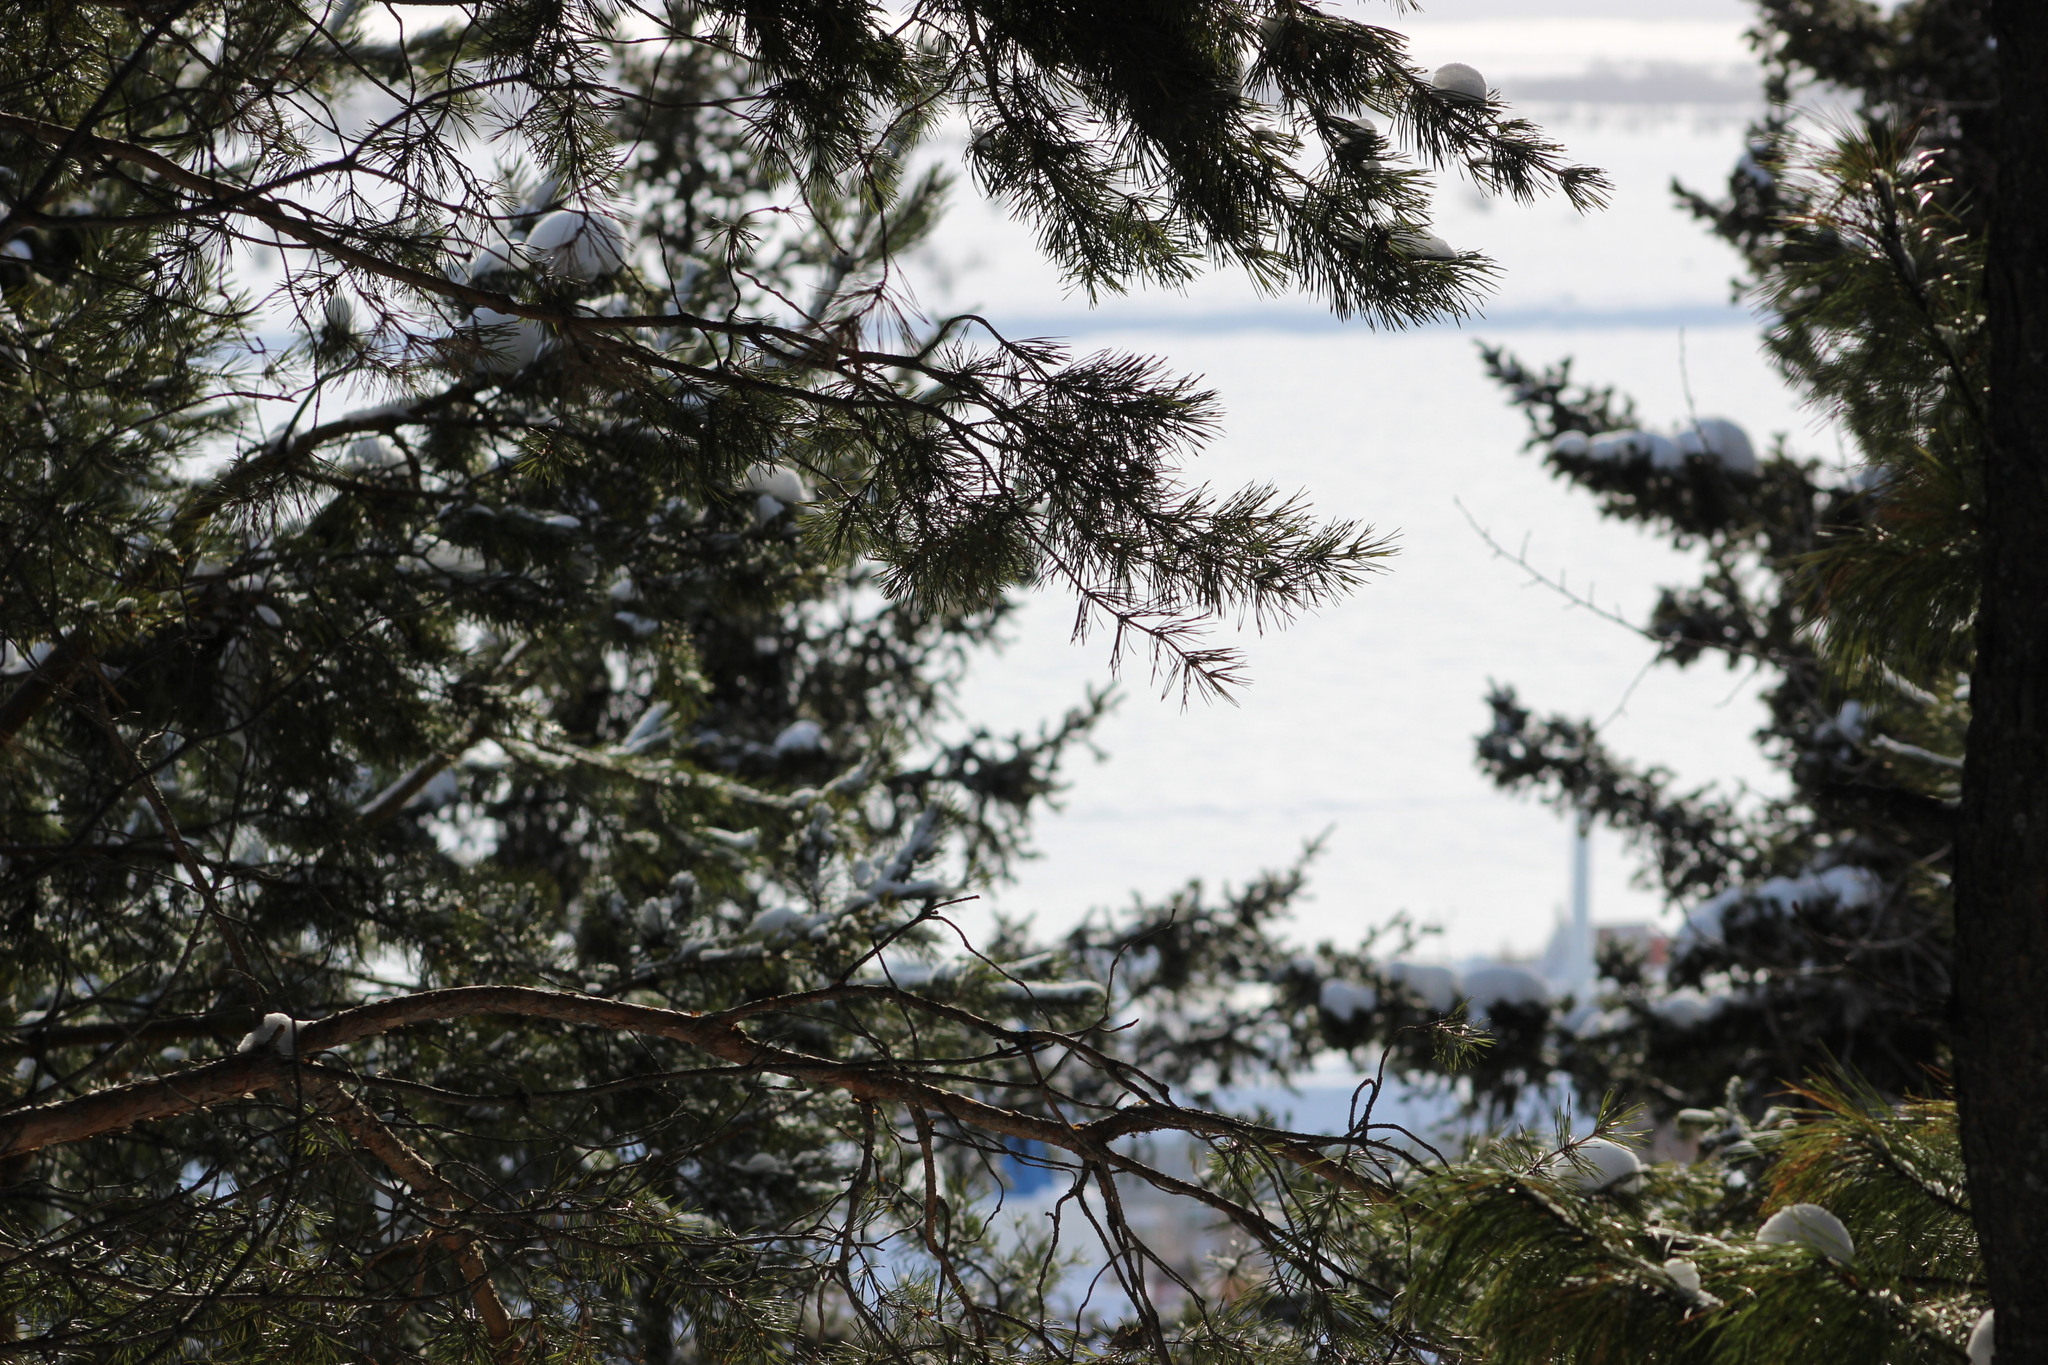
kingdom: Plantae
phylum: Tracheophyta
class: Pinopsida
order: Pinales
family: Pinaceae
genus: Pinus
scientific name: Pinus sibirica
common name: Siberian pine
